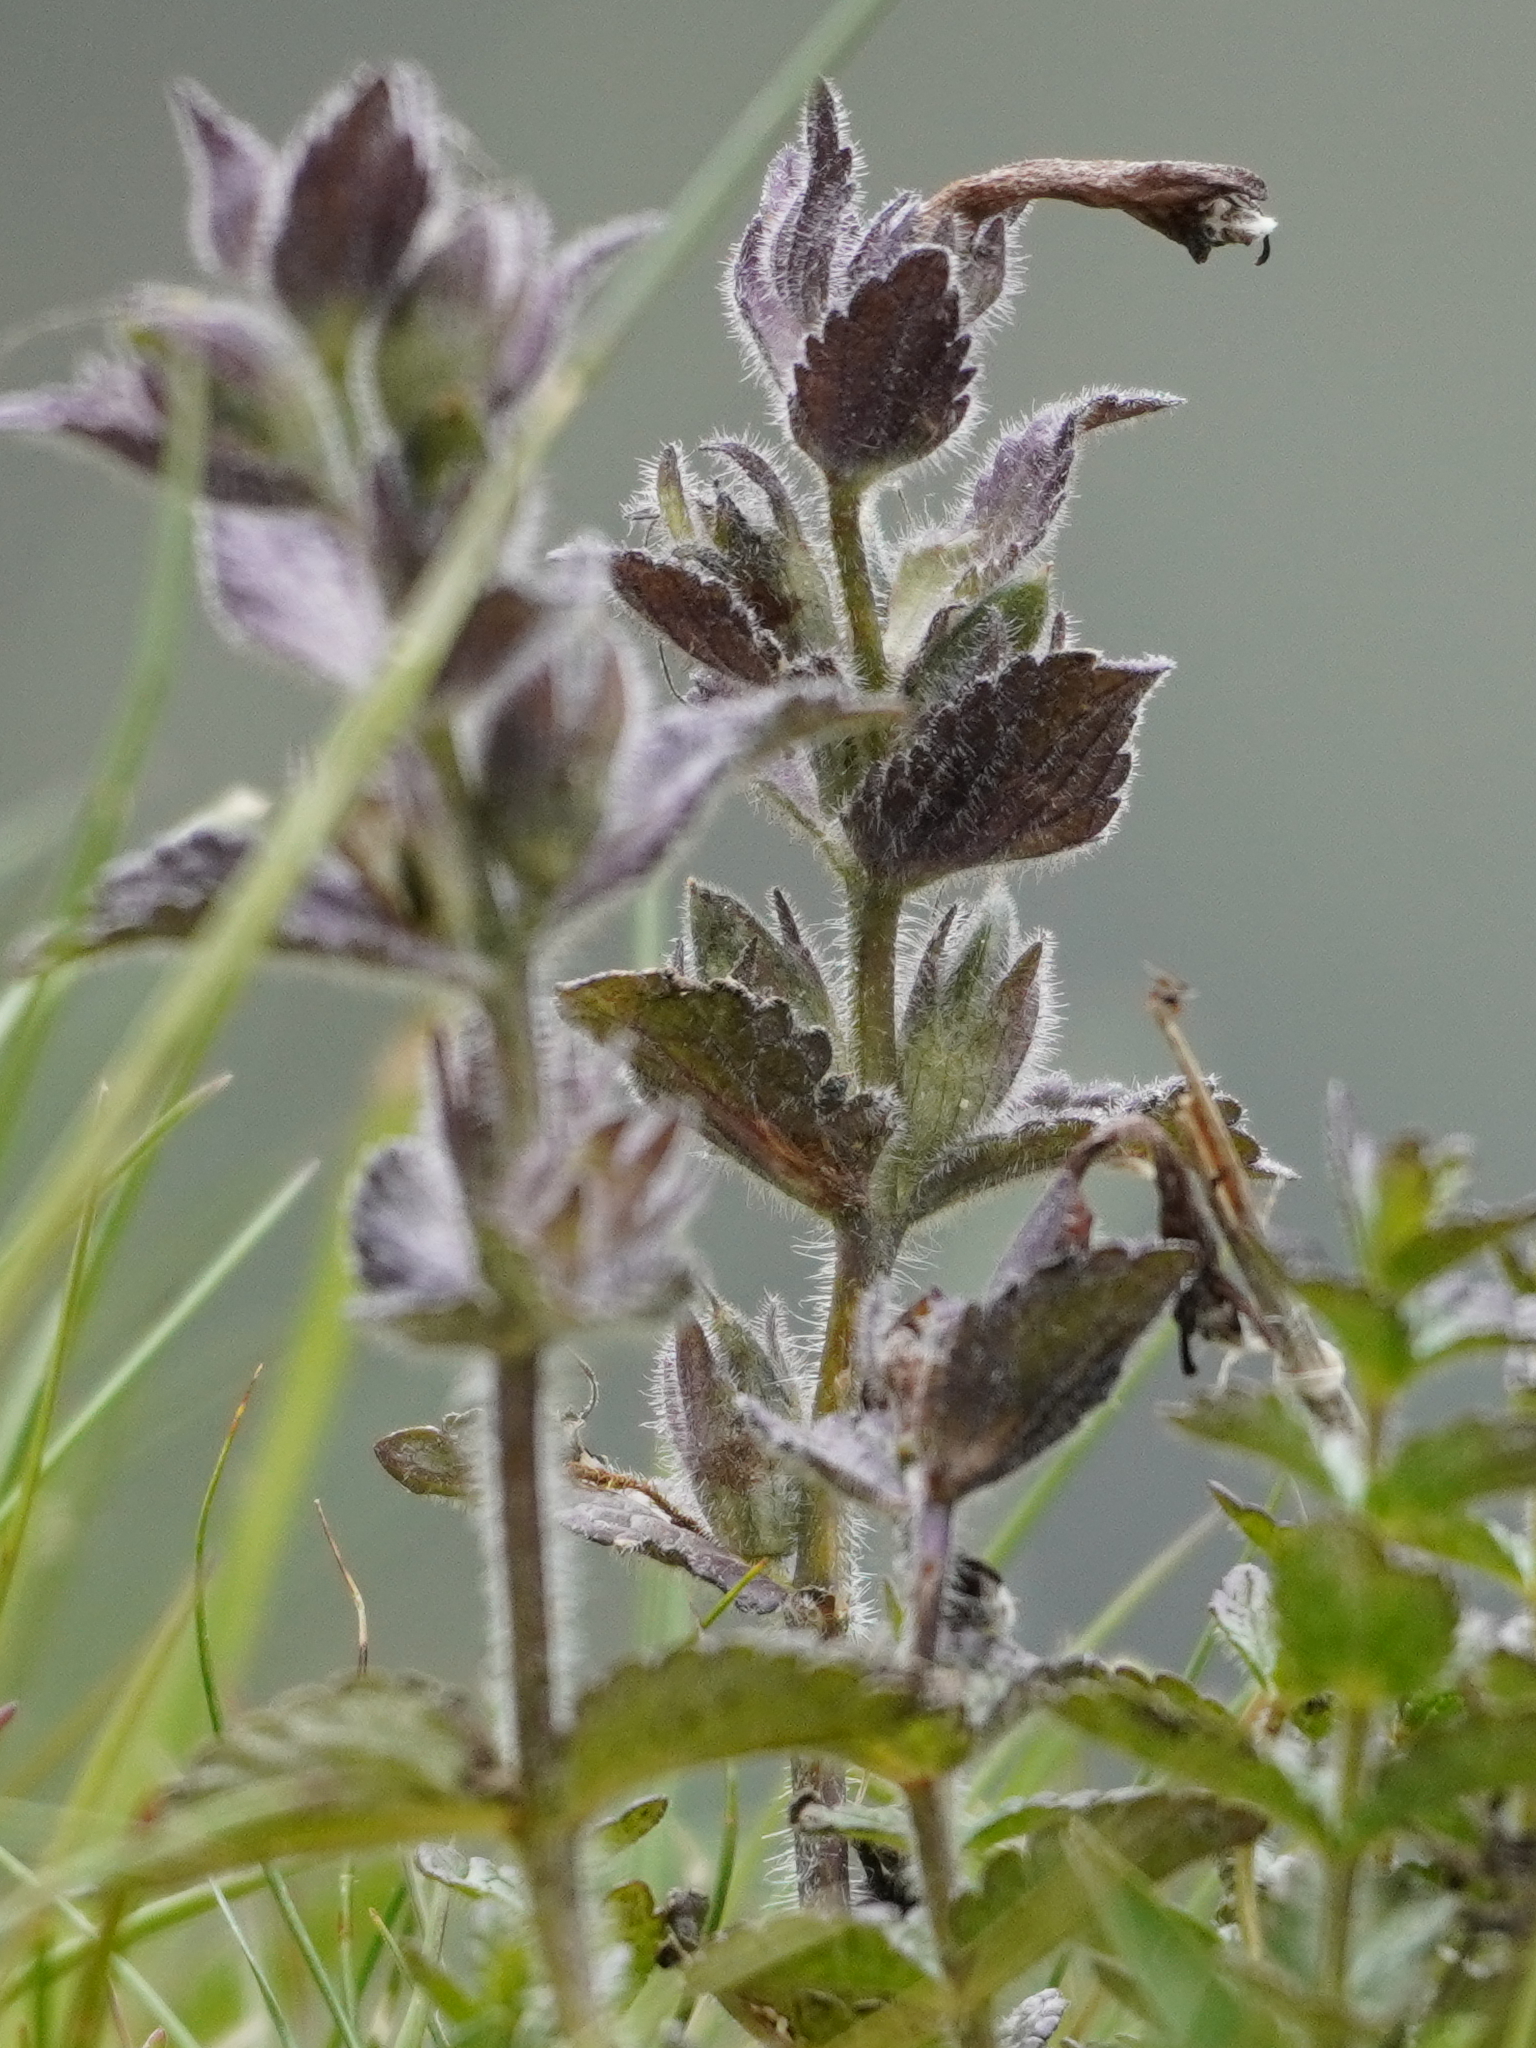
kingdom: Plantae
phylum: Tracheophyta
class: Magnoliopsida
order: Lamiales
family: Orobanchaceae
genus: Bartsia
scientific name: Bartsia alpina
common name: Alpine bartsia
